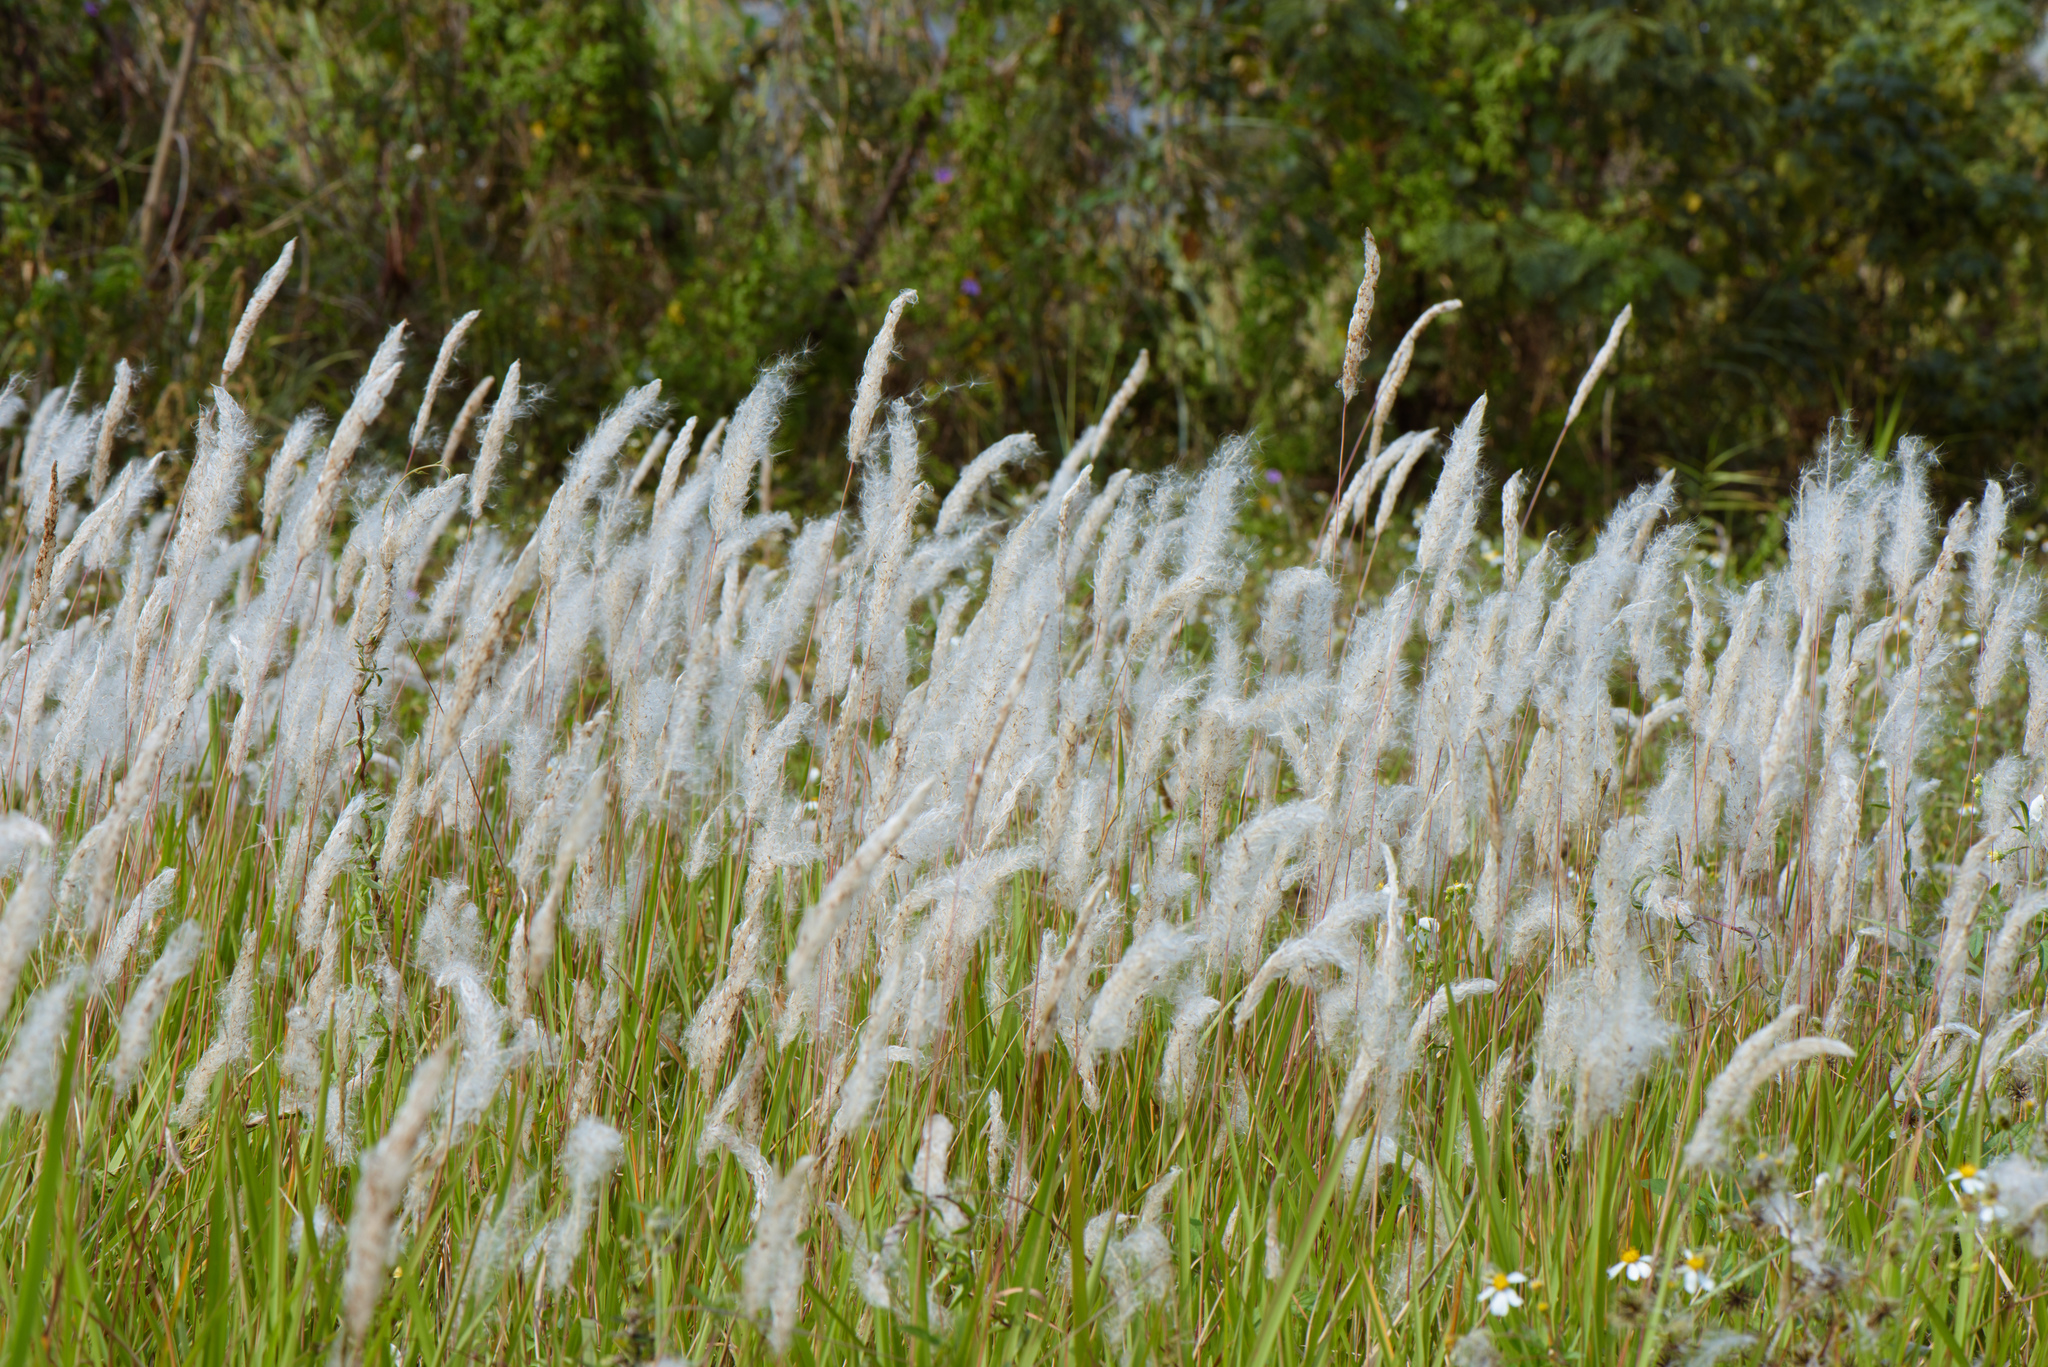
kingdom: Plantae
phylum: Tracheophyta
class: Liliopsida
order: Poales
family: Poaceae
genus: Imperata
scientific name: Imperata cylindrica
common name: Cogongrass
